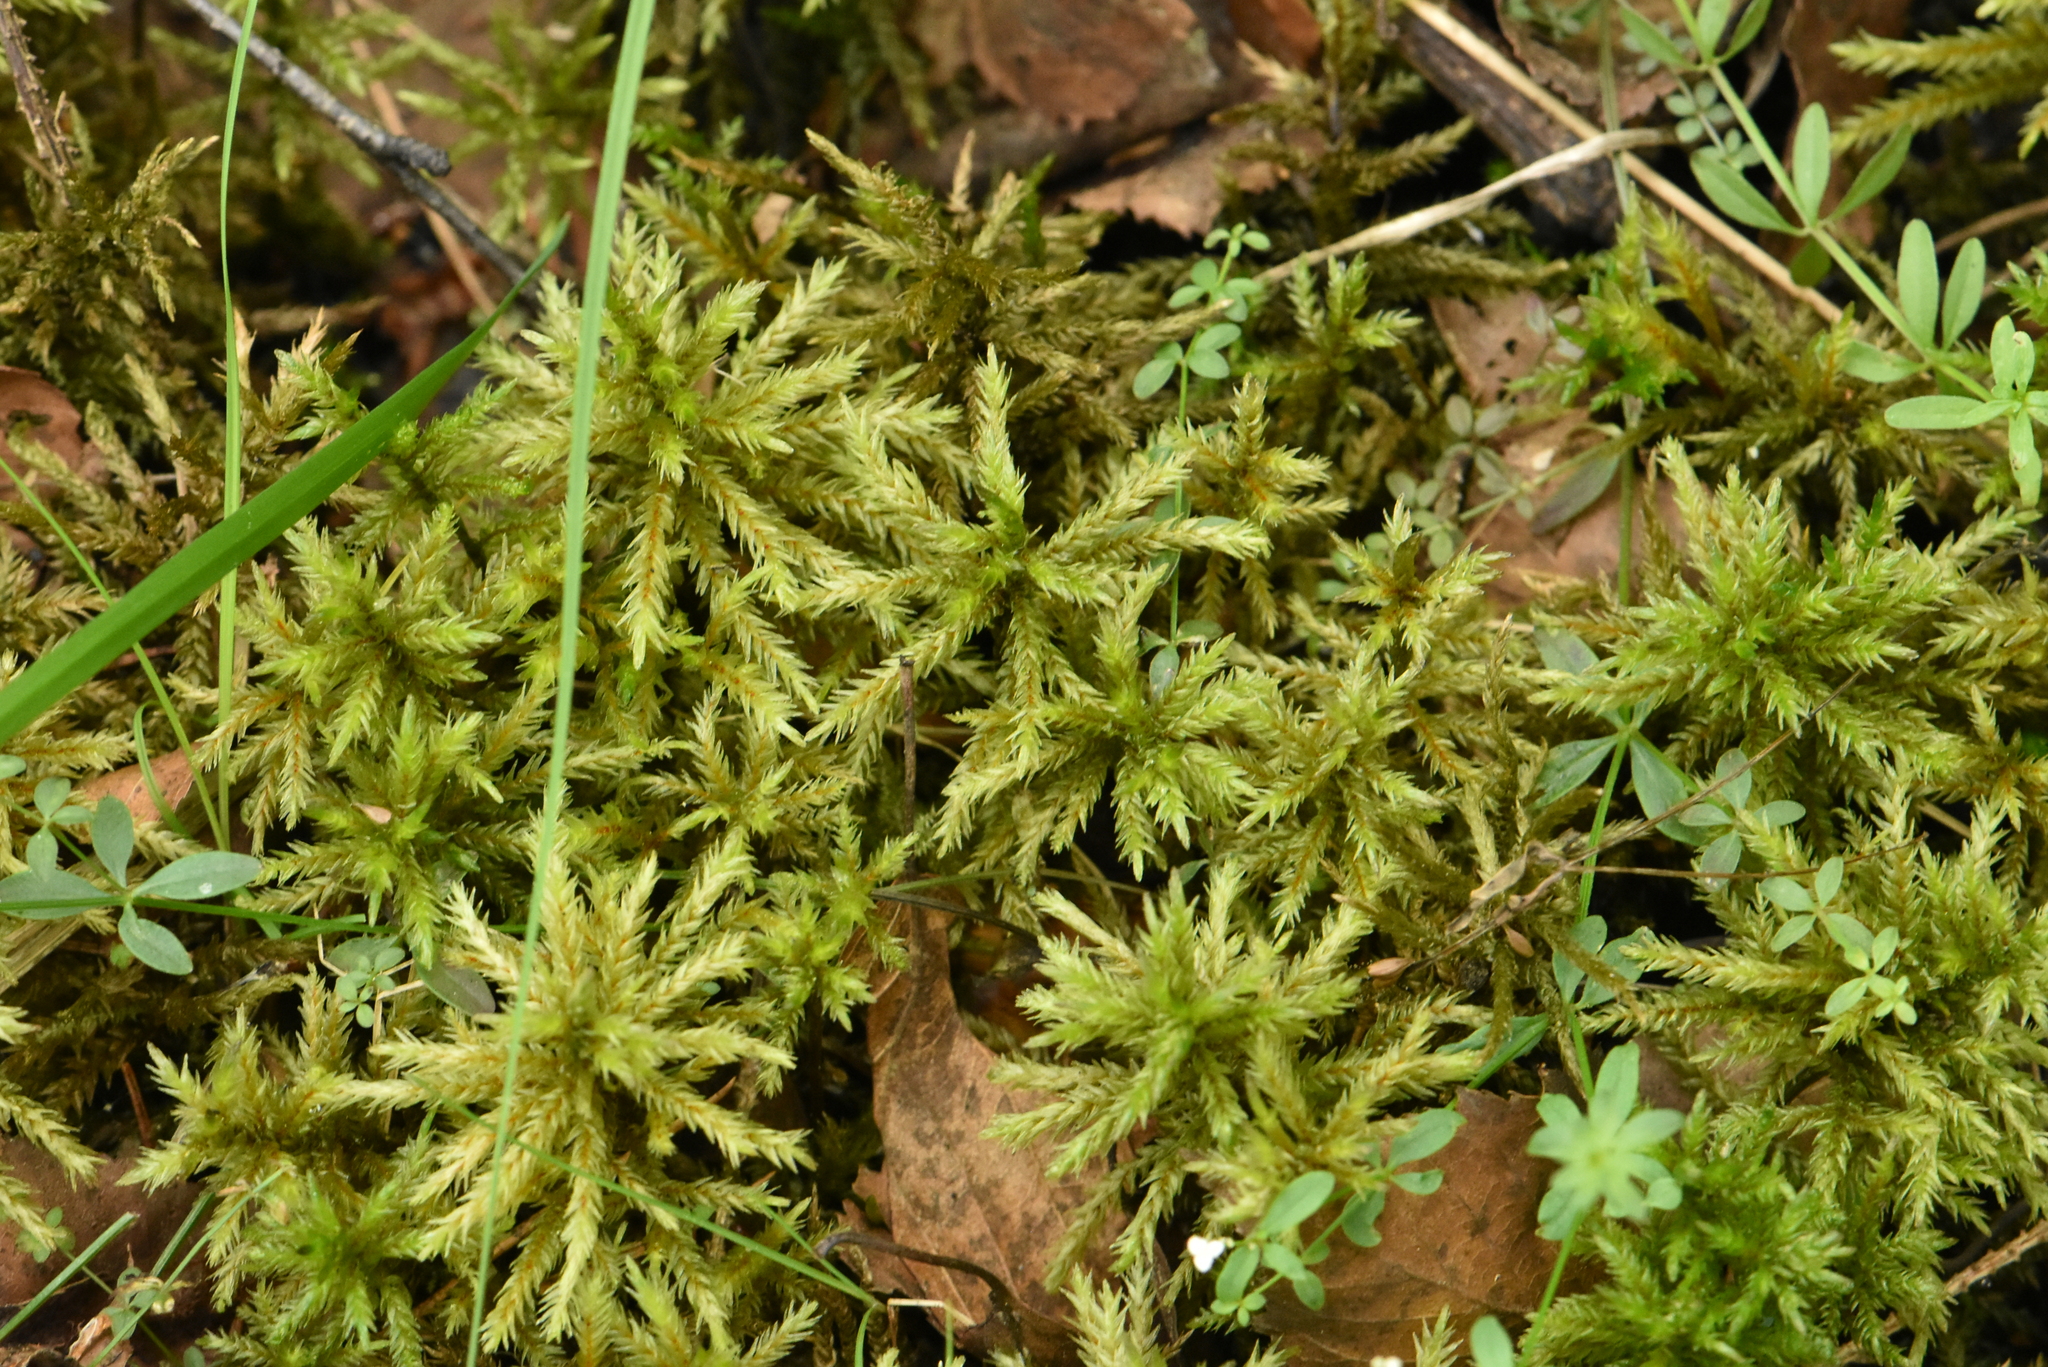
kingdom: Plantae
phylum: Bryophyta
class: Bryopsida
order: Hypnales
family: Climaciaceae
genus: Climacium
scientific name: Climacium dendroides
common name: Northern tree moss
